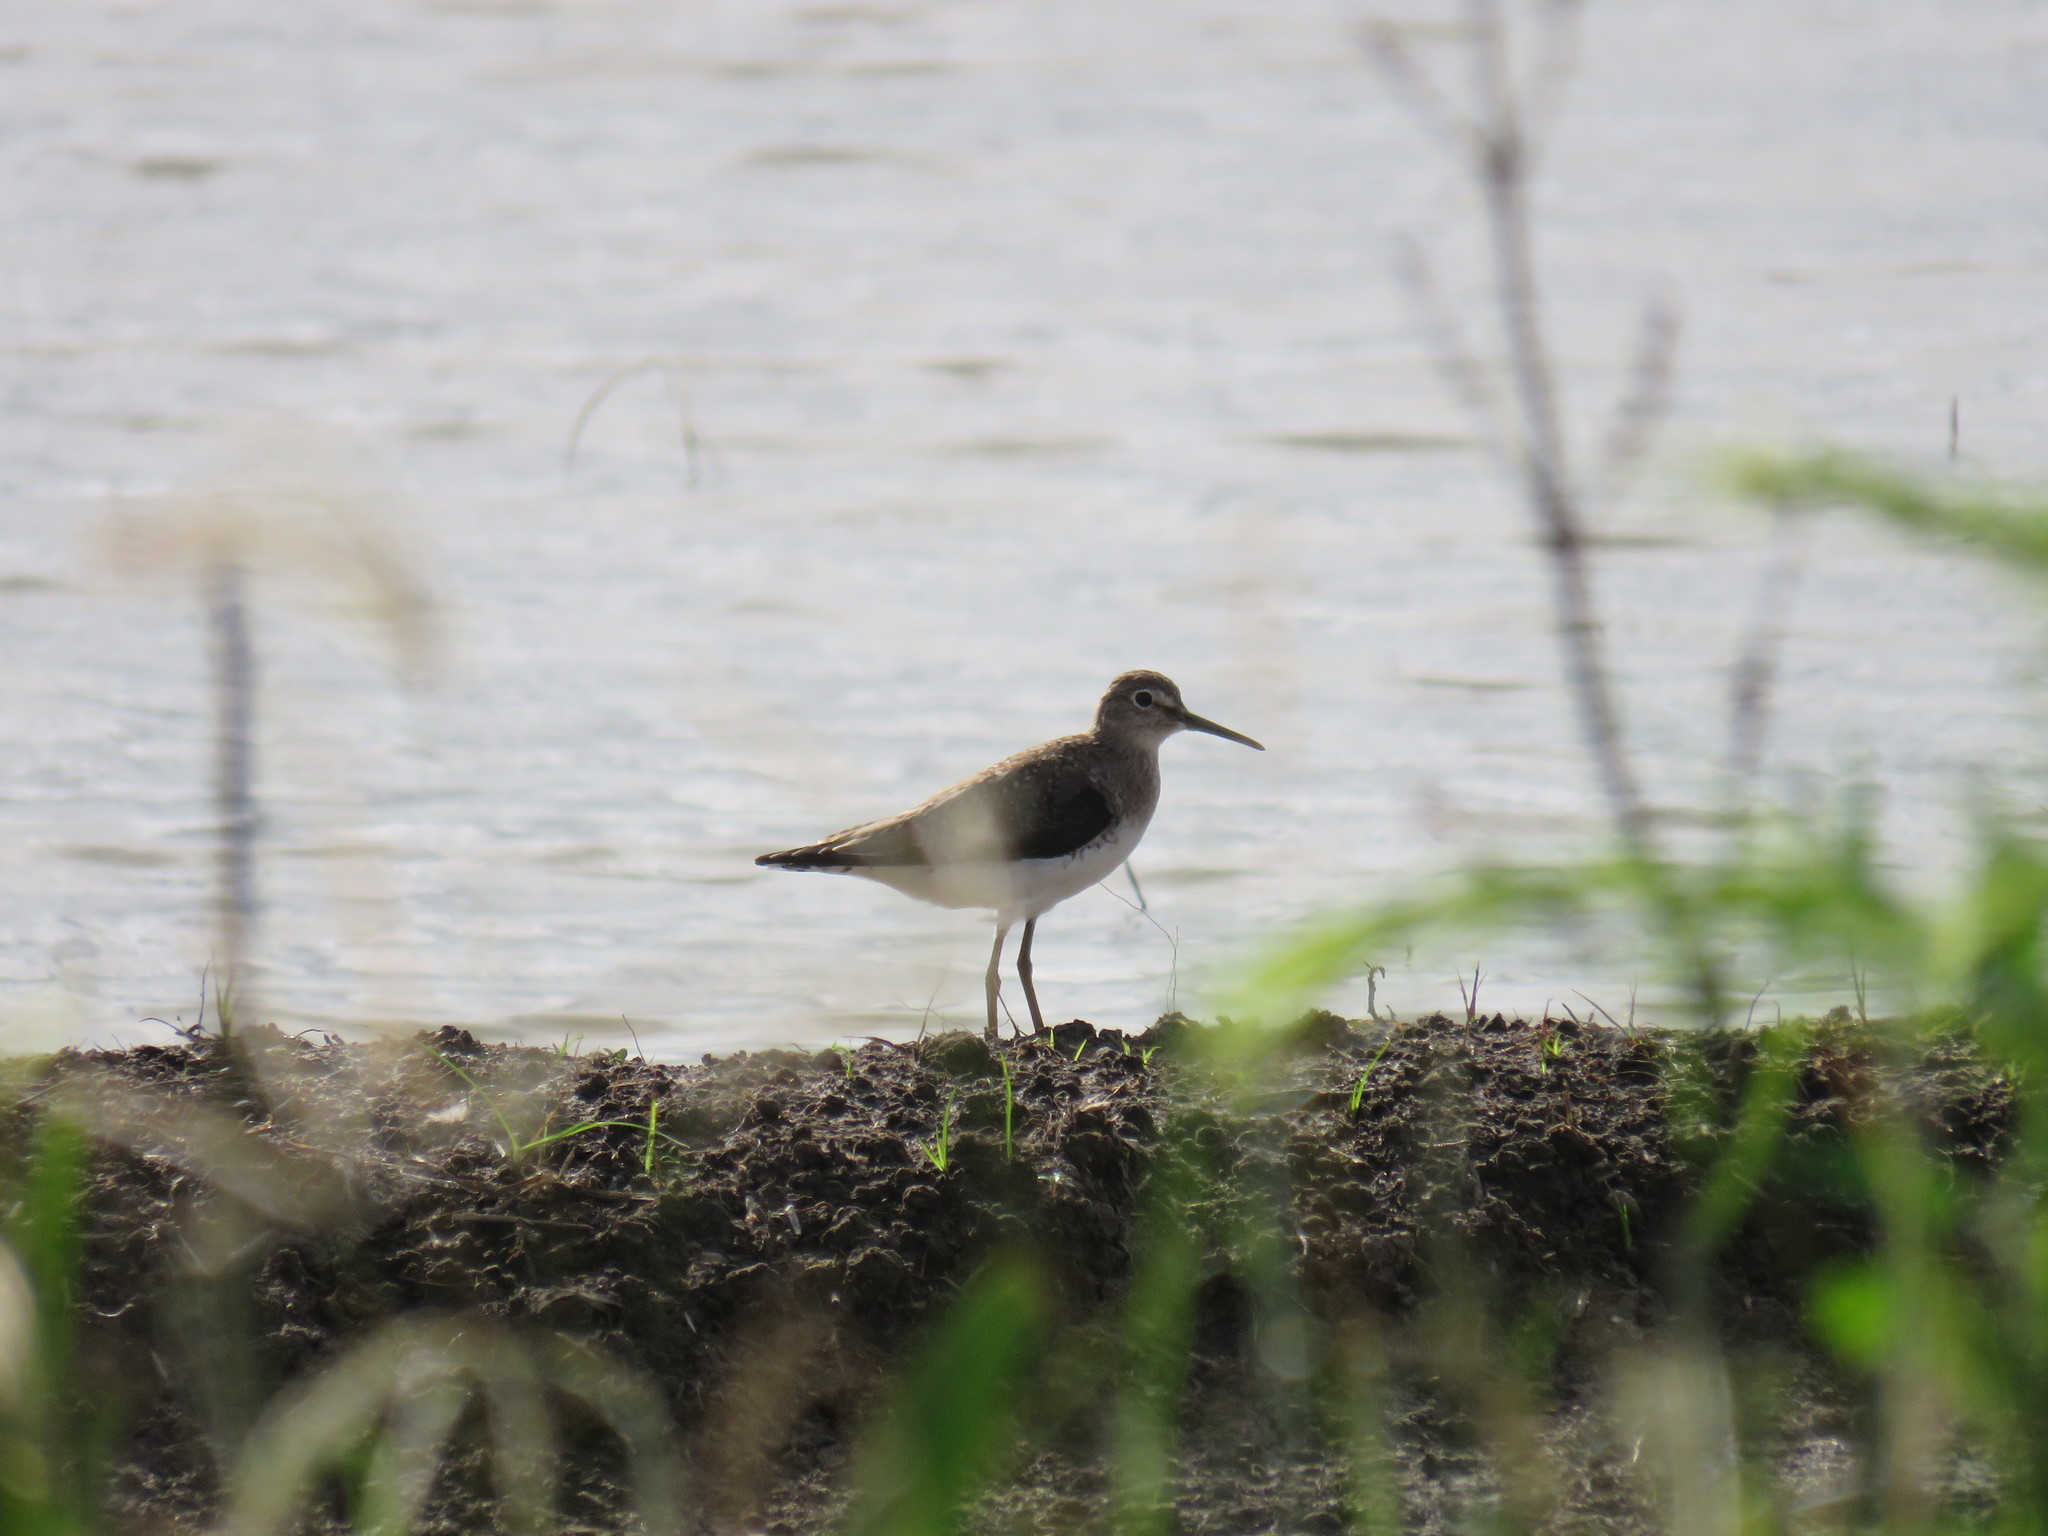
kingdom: Animalia
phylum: Chordata
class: Aves
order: Charadriiformes
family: Scolopacidae
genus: Tringa
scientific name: Tringa solitaria
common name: Solitary sandpiper
